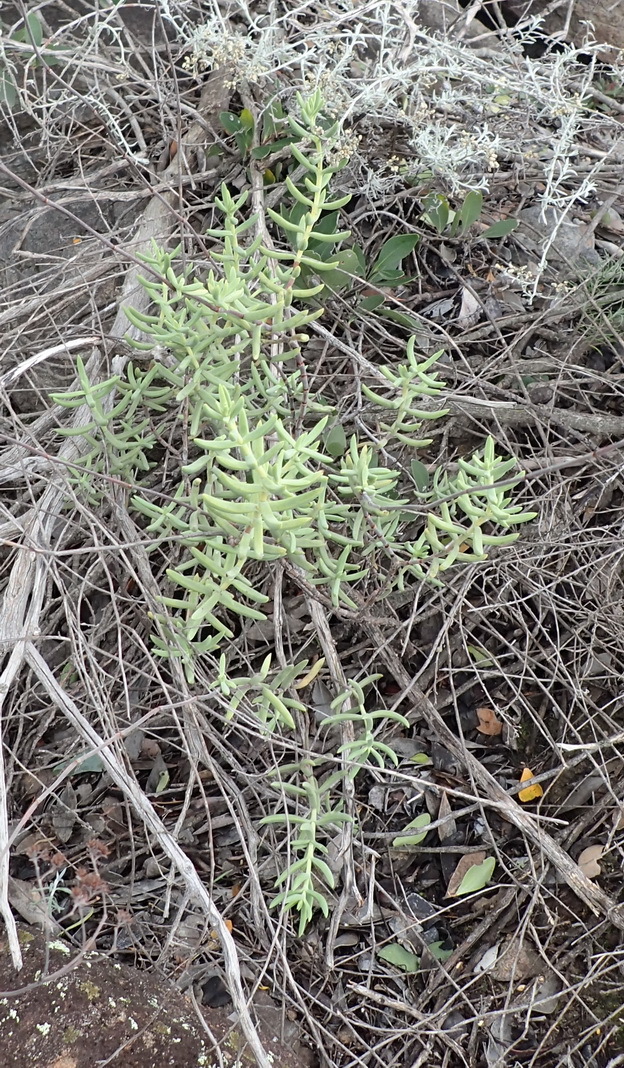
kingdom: Plantae
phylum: Tracheophyta
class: Magnoliopsida
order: Saxifragales
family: Crassulaceae
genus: Crassula
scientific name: Crassula mollis
